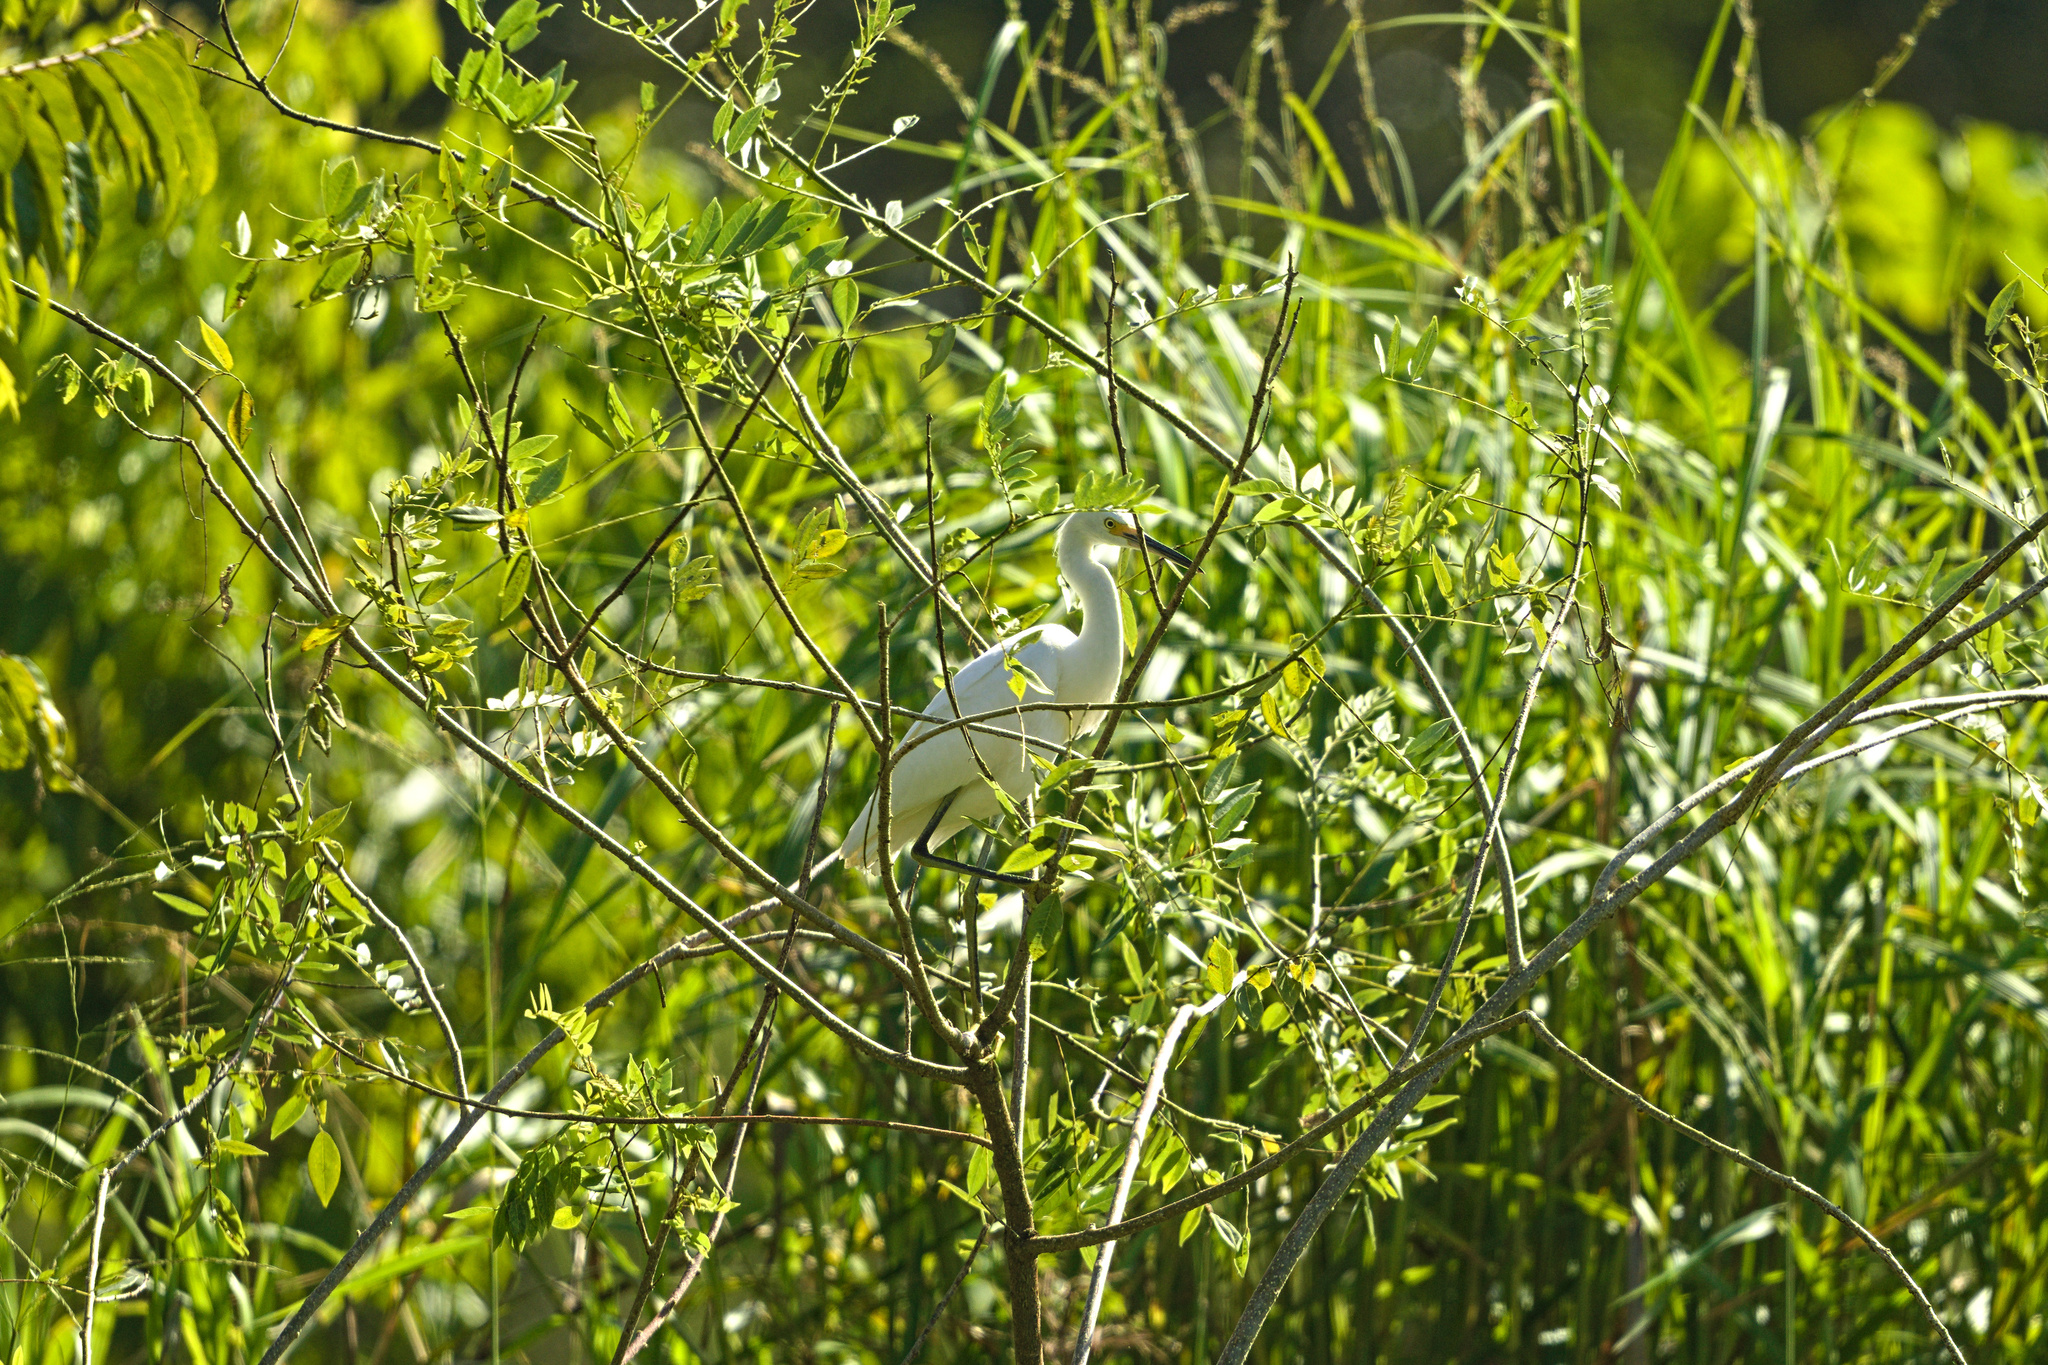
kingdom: Animalia
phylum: Chordata
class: Aves
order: Pelecaniformes
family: Ardeidae
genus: Egretta
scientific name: Egretta thula
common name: Snowy egret
